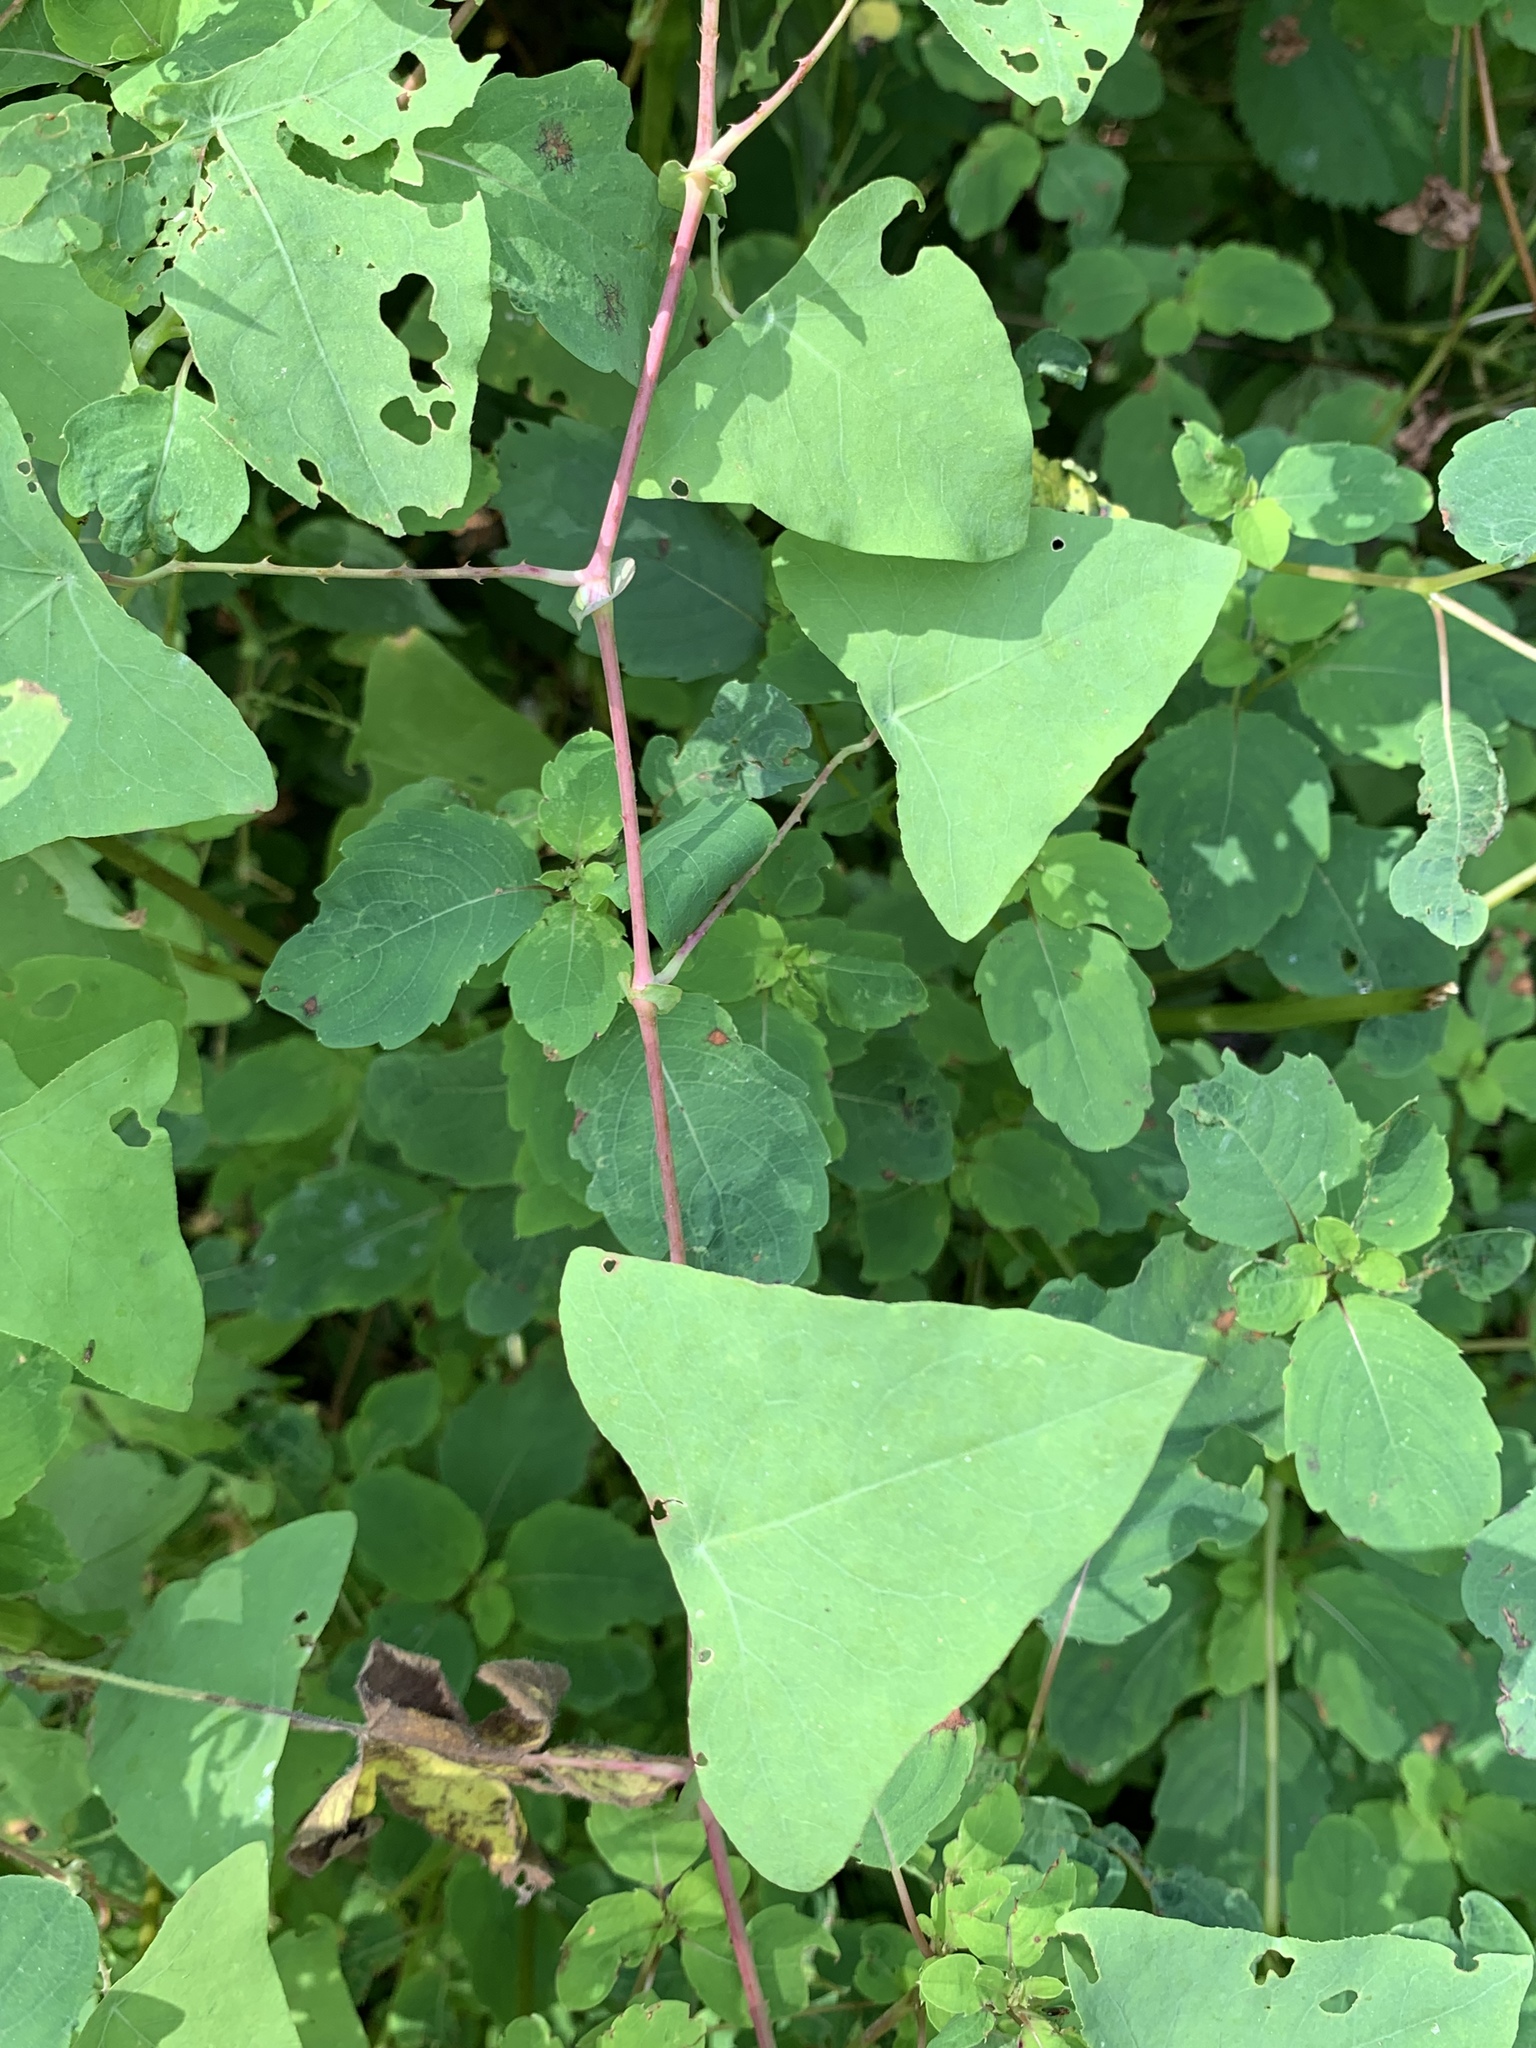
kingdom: Plantae
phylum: Tracheophyta
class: Magnoliopsida
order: Caryophyllales
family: Polygonaceae
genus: Persicaria
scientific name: Persicaria perfoliata
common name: Asiatic tearthumb
